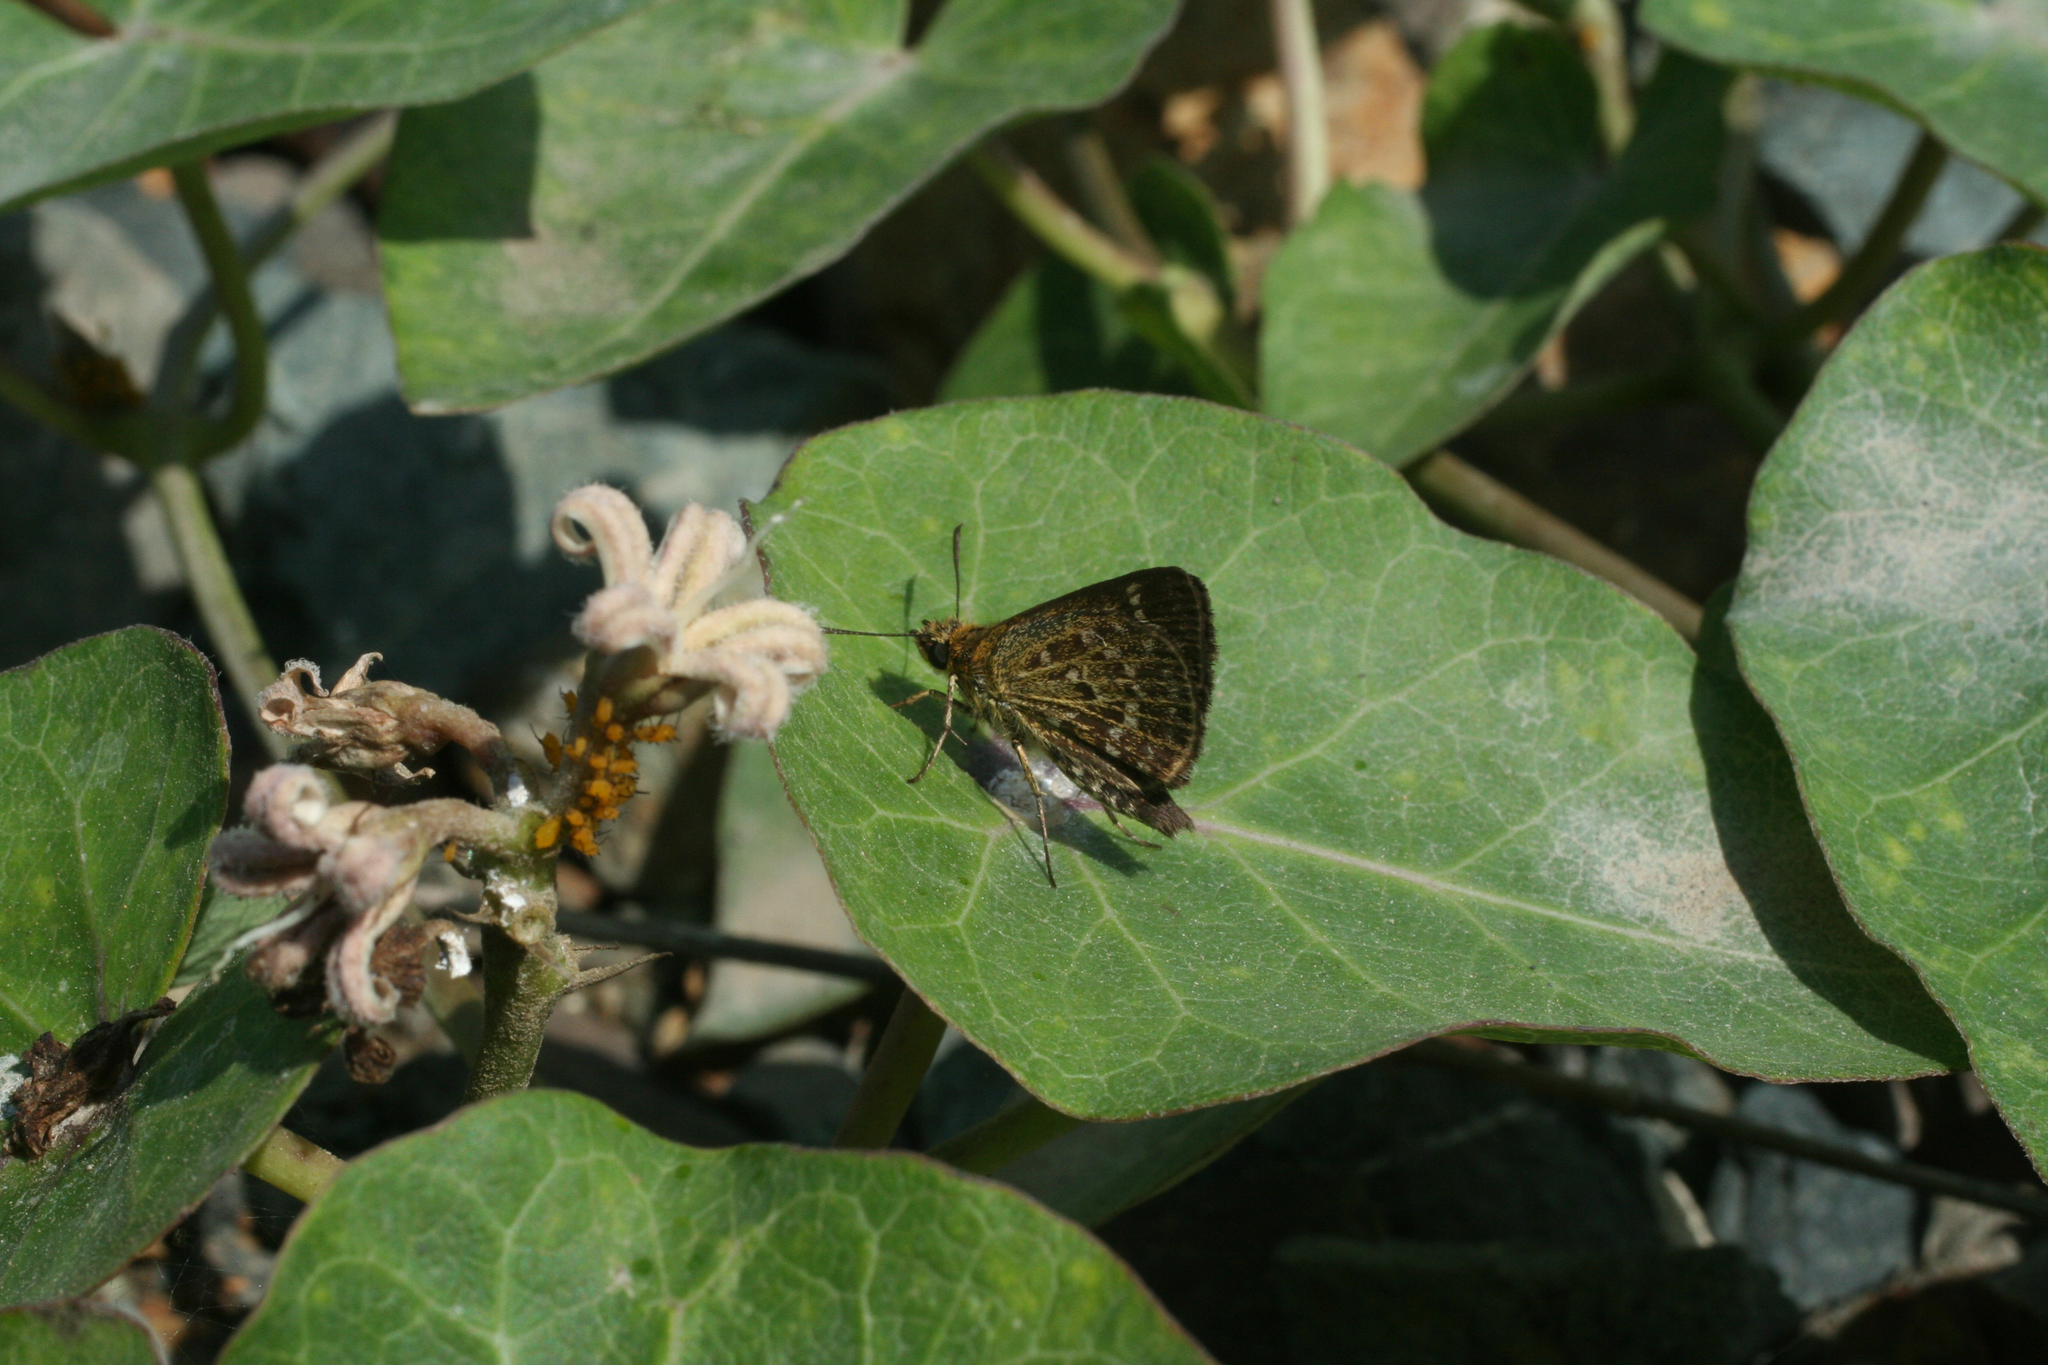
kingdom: Plantae
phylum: Tracheophyta
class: Magnoliopsida
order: Gentianales
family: Apocynaceae
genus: Cynanchum
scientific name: Cynanchum rostellatum
